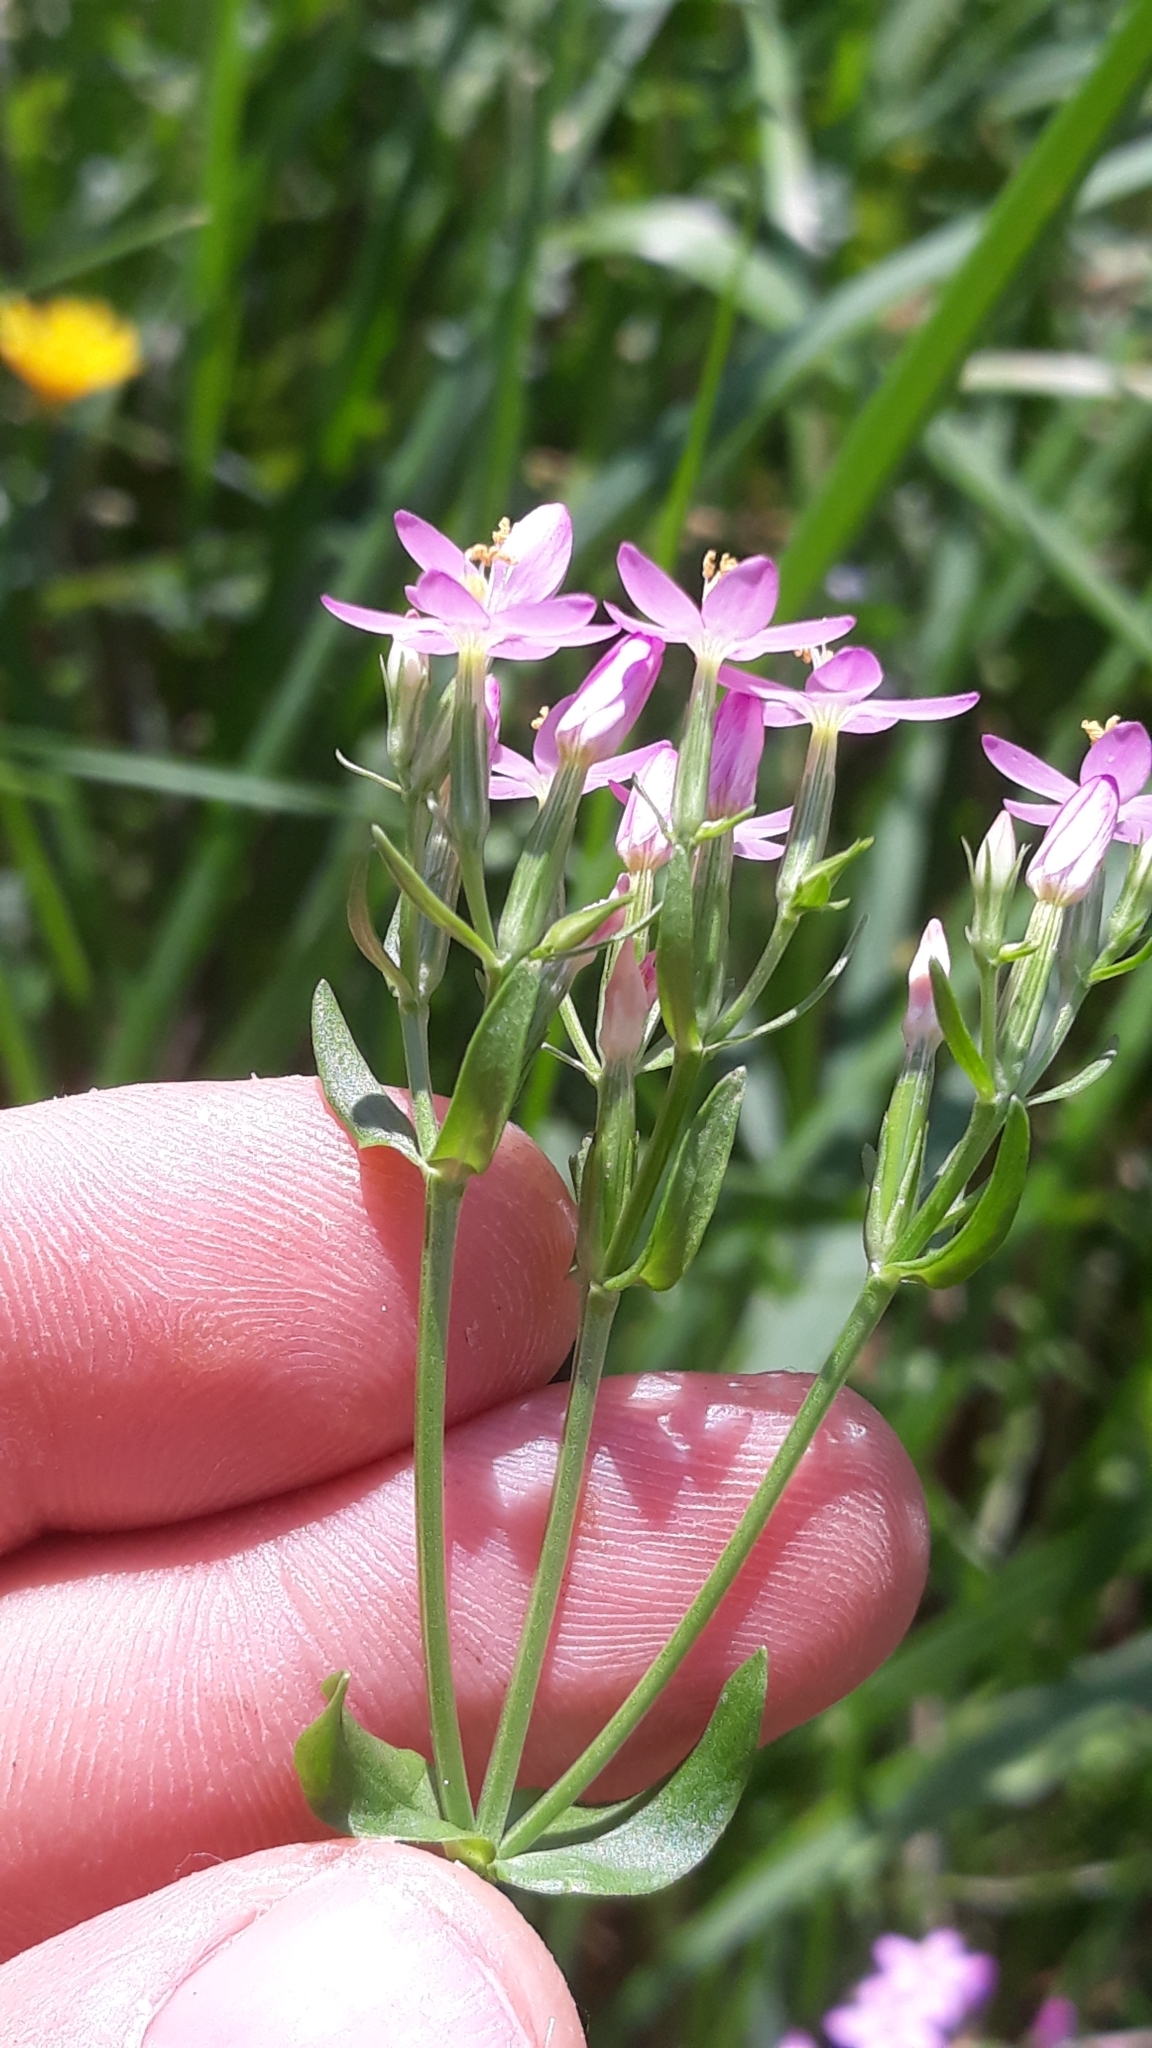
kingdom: Plantae
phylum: Tracheophyta
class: Magnoliopsida
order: Gentianales
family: Gentianaceae
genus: Centaurium
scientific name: Centaurium erythraea
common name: Common centaury
